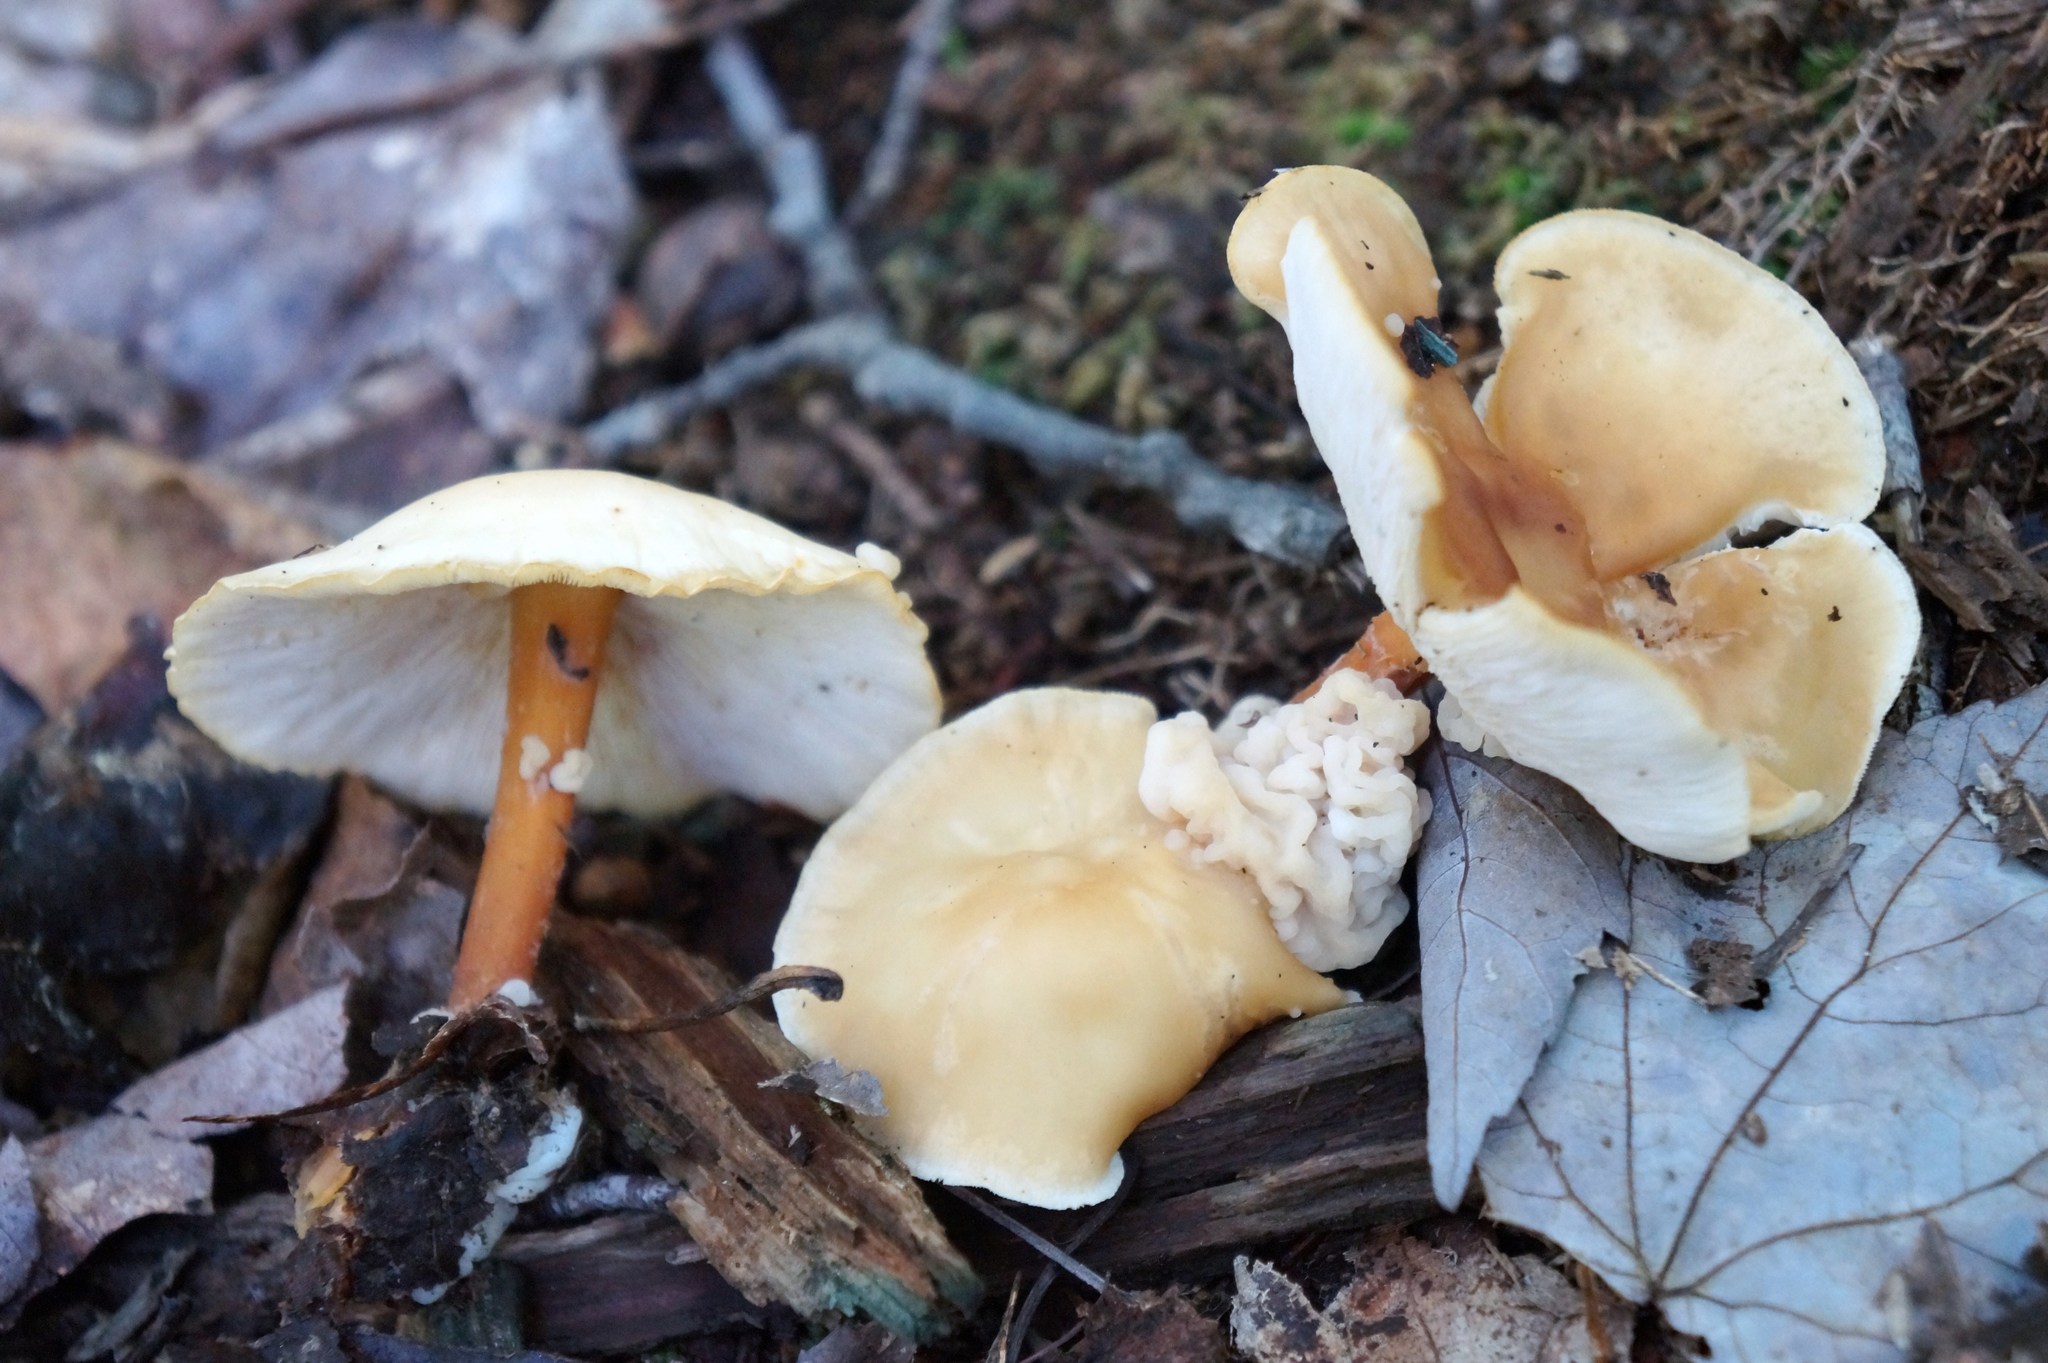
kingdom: Fungi
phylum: Basidiomycota
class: Tremellomycetes
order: Filobasidiales
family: Filobasidiaceae
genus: Syzygospora
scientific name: Syzygospora mycetophila
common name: Collybia clouds
